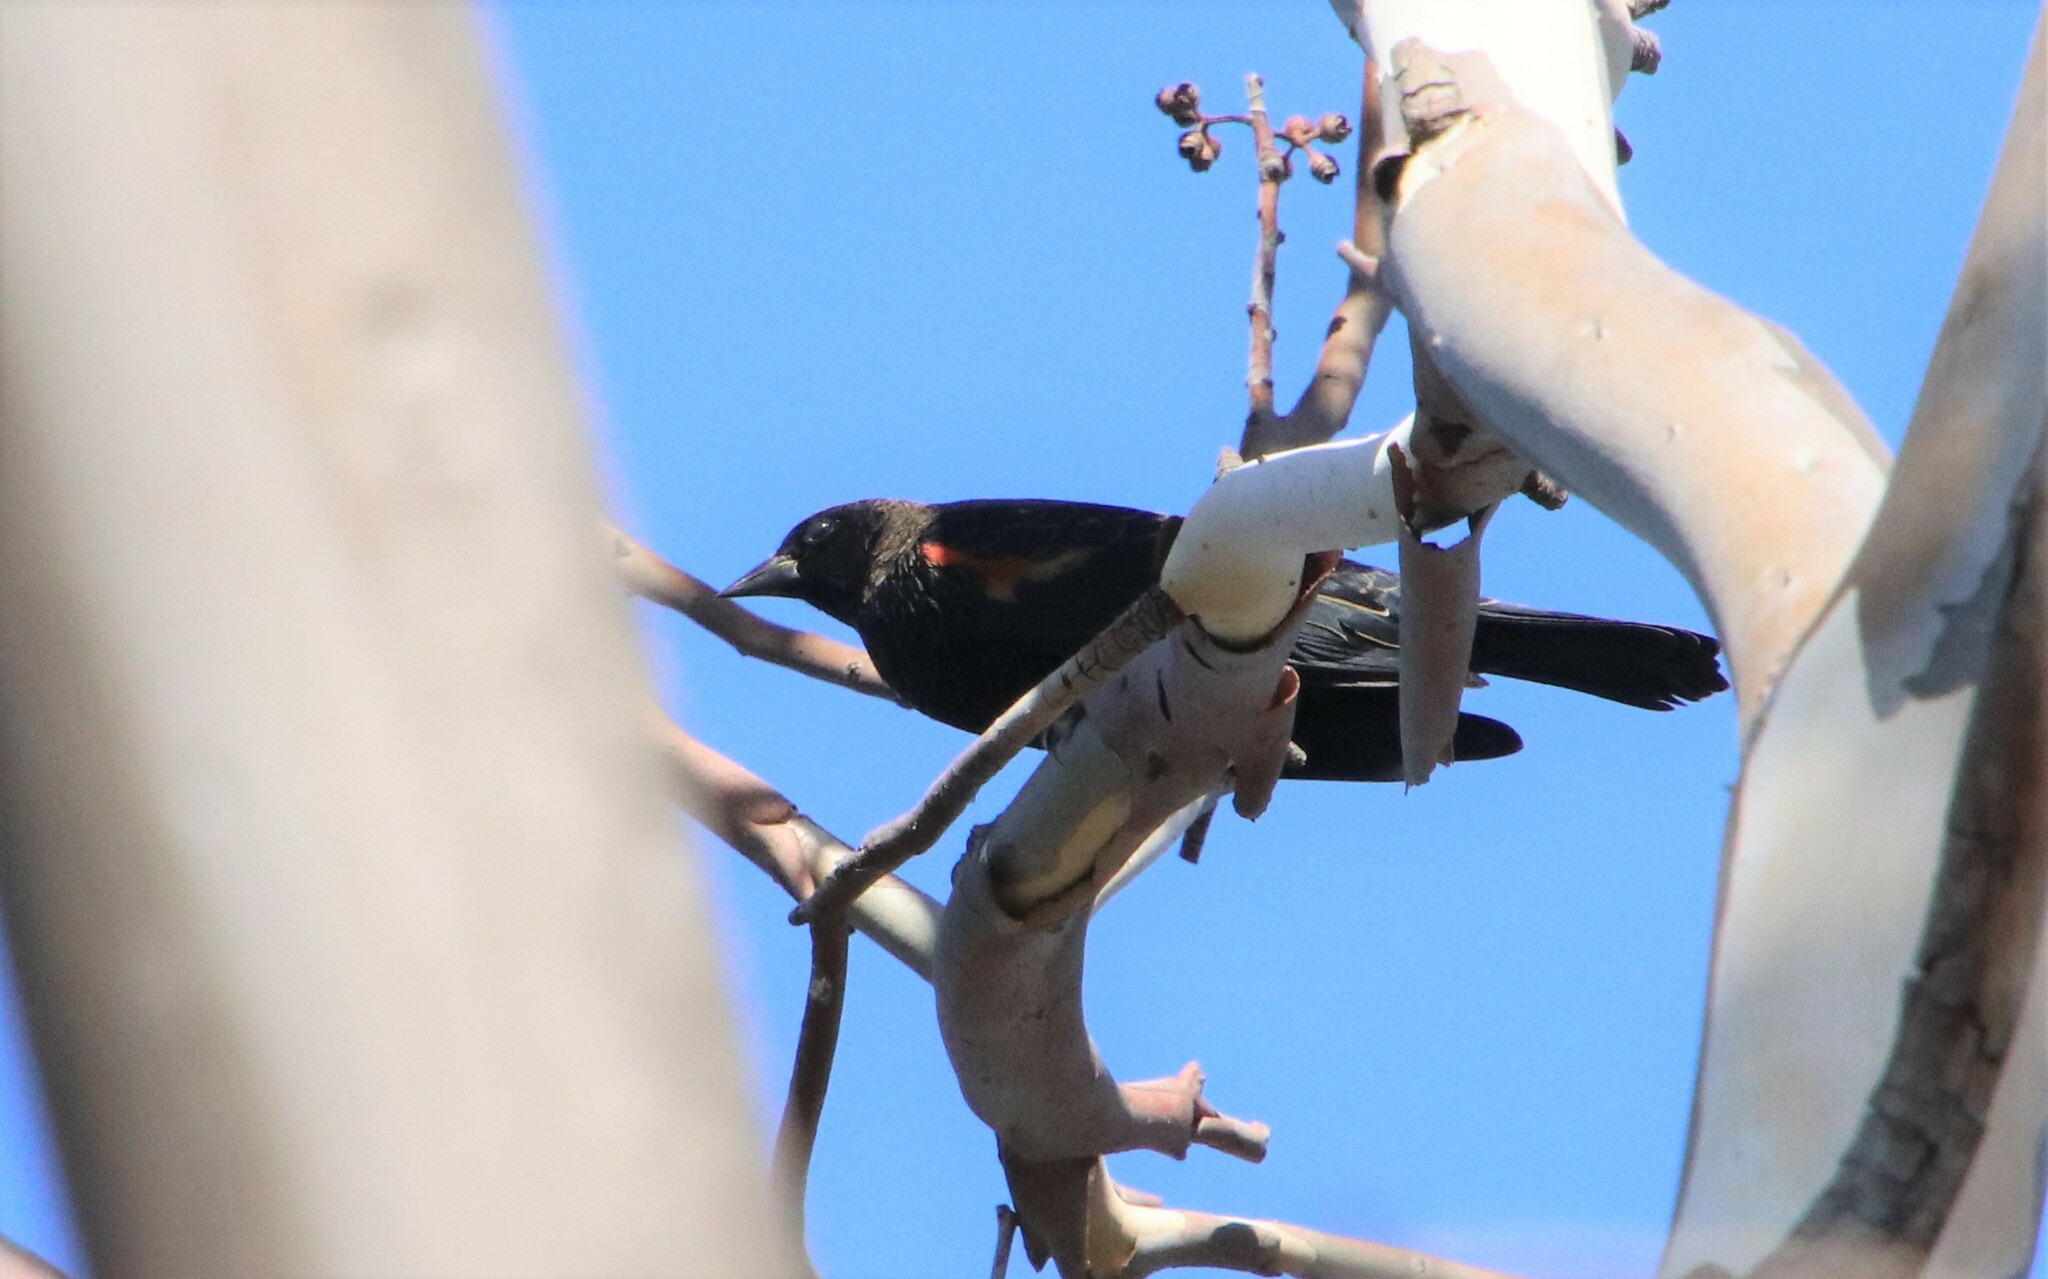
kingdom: Animalia
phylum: Chordata
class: Aves
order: Passeriformes
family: Icteridae
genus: Agelaius
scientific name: Agelaius phoeniceus
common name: Red-winged blackbird
